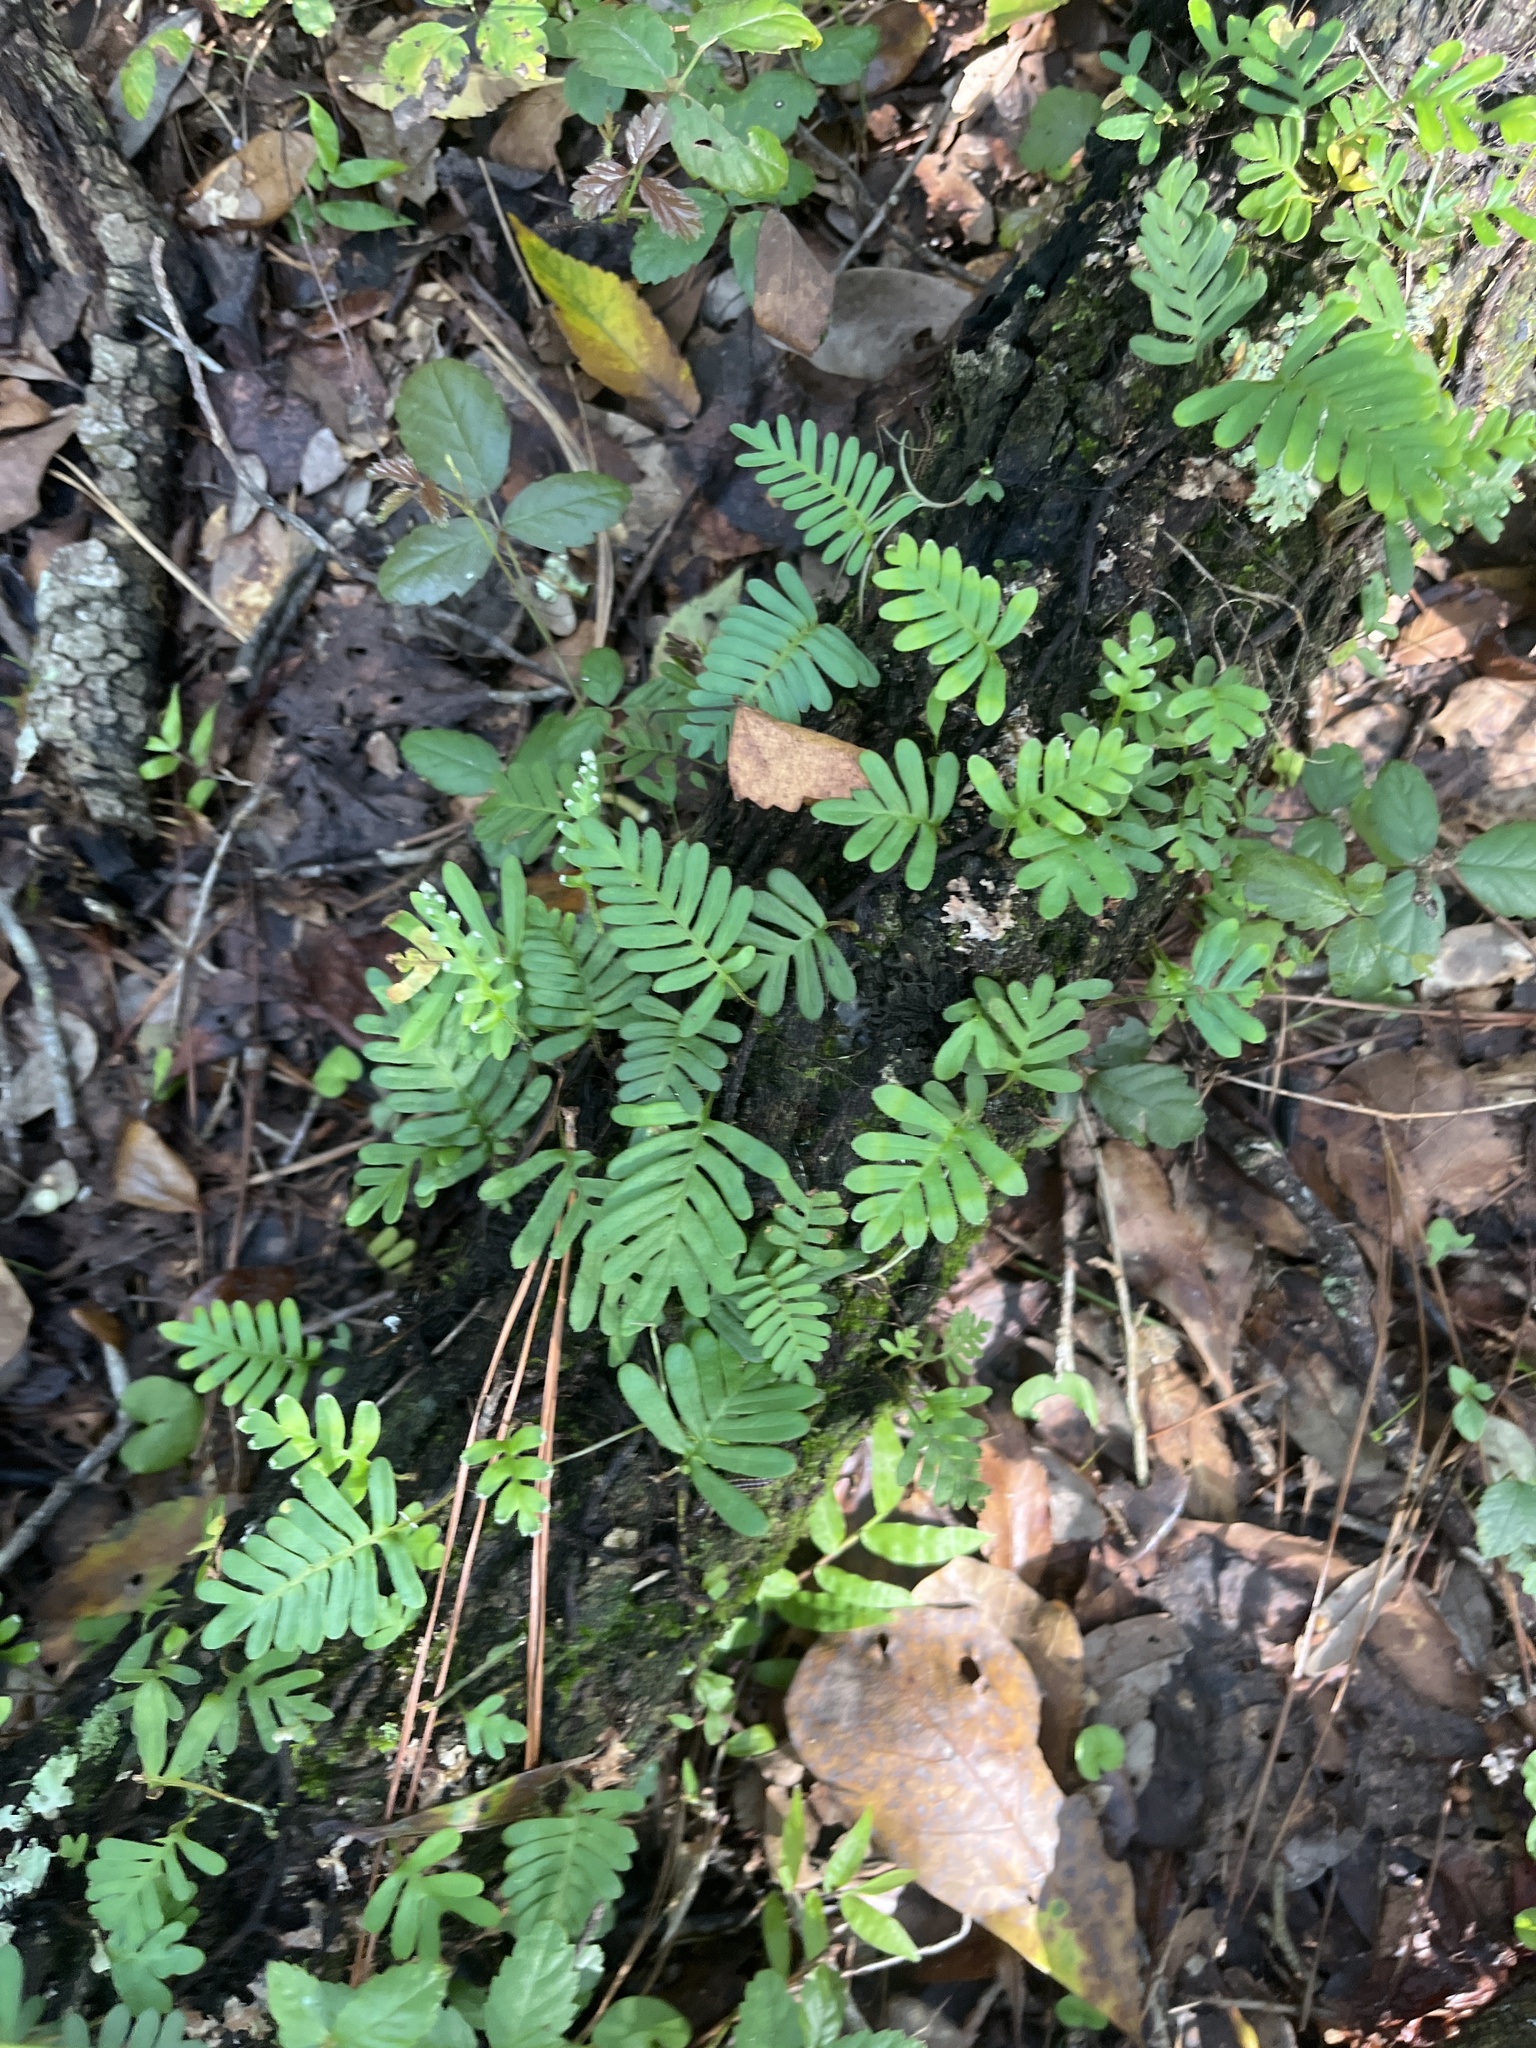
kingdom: Plantae
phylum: Tracheophyta
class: Polypodiopsida
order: Polypodiales
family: Polypodiaceae
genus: Pleopeltis
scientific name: Pleopeltis michauxiana
